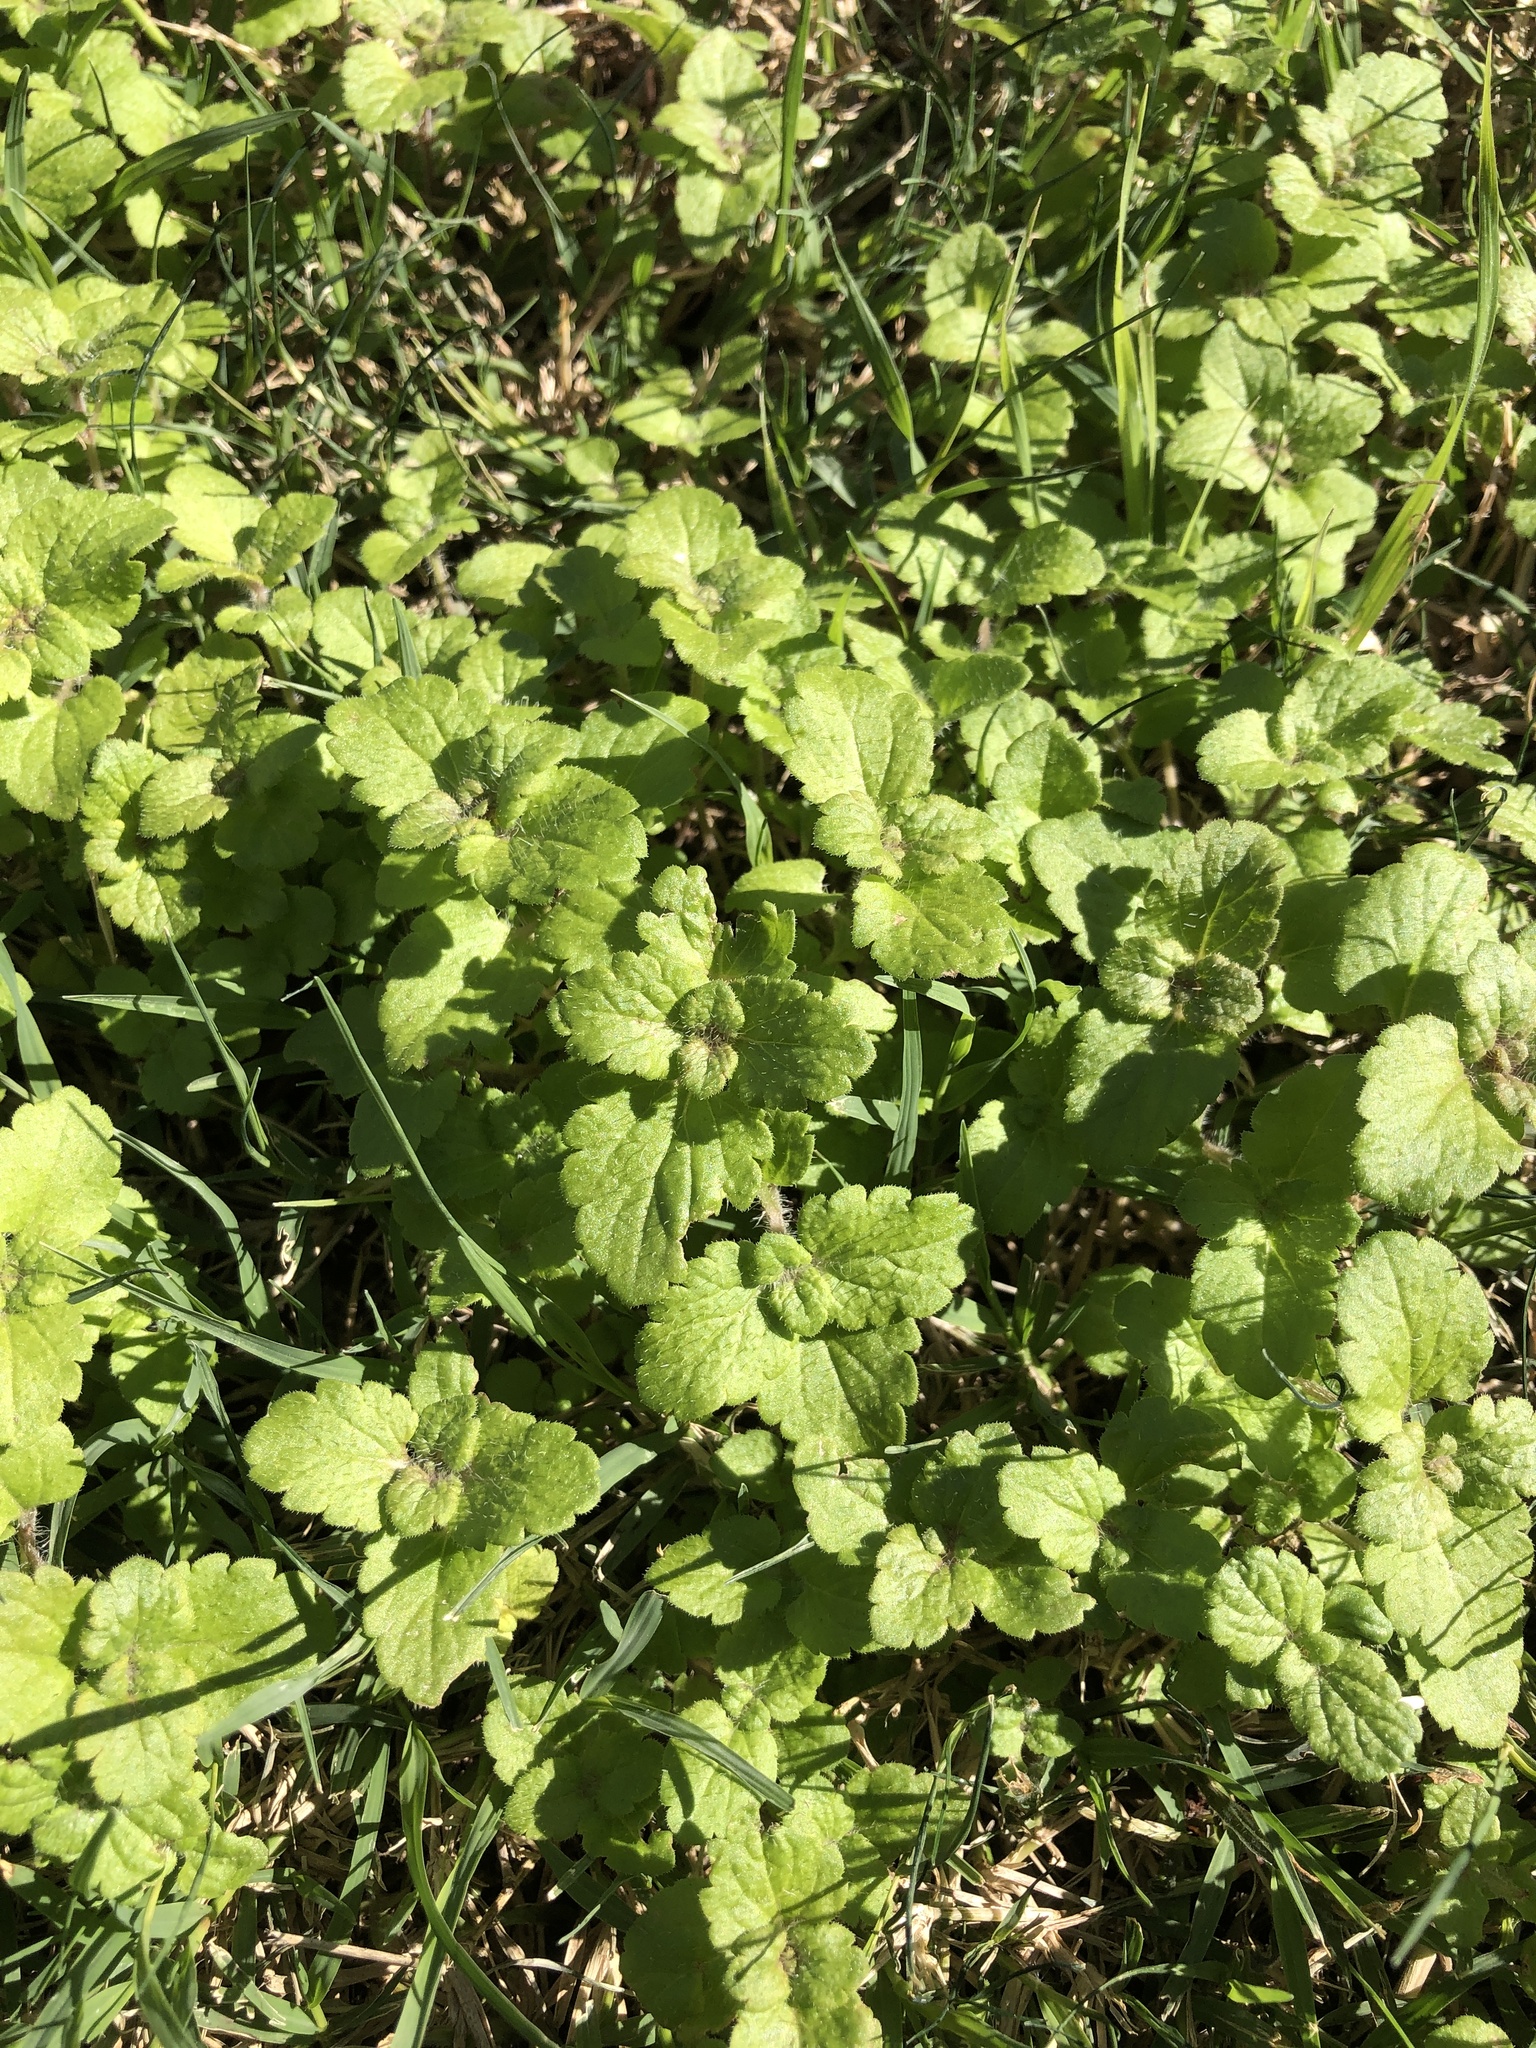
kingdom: Plantae
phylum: Tracheophyta
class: Magnoliopsida
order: Lamiales
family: Lamiaceae
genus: Lamium
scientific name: Lamium amplexicaule
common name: Henbit dead-nettle
